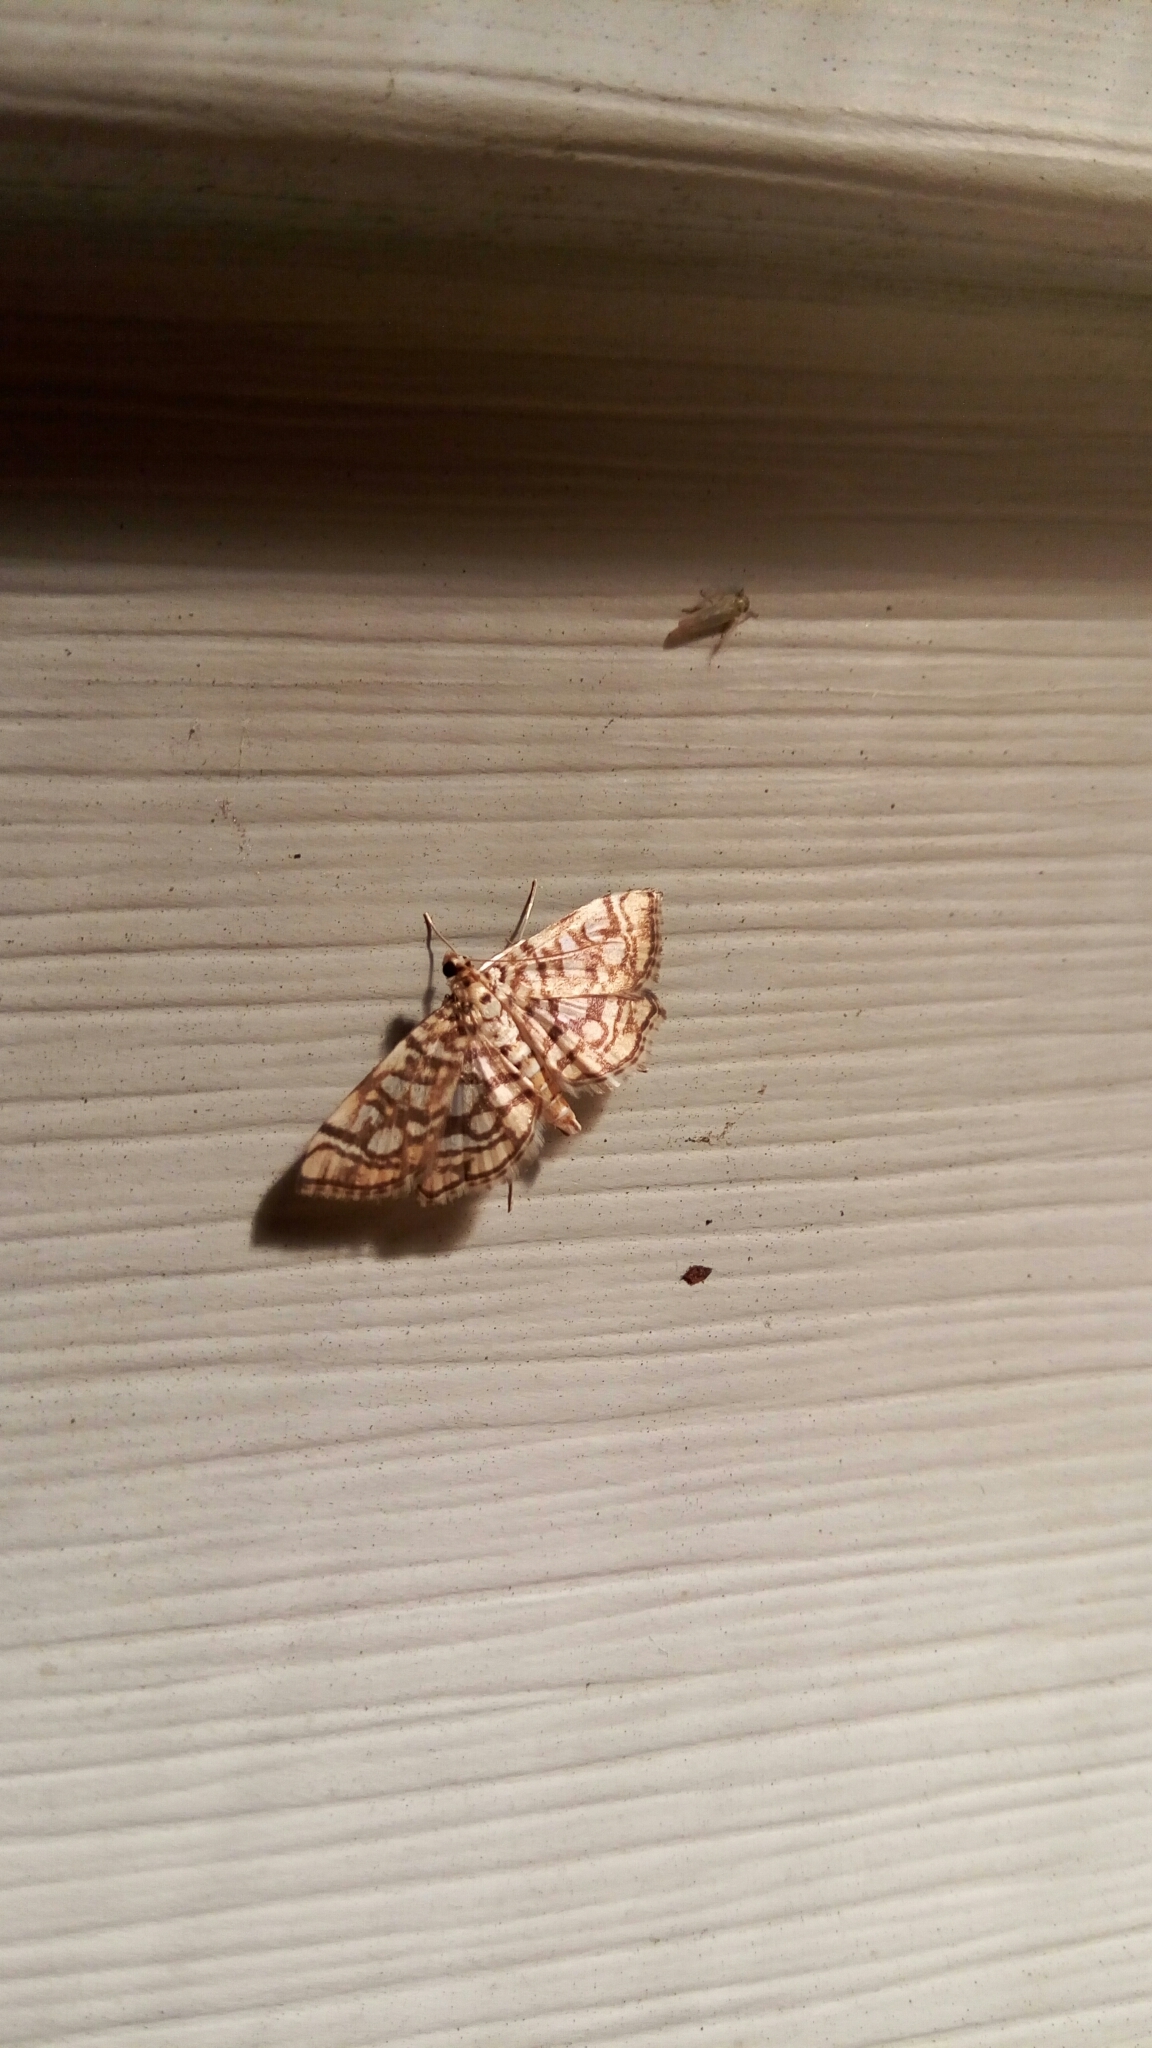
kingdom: Animalia
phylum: Arthropoda
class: Insecta
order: Lepidoptera
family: Crambidae
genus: Lygropia
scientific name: Lygropia rivulalis
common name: Bog lygropia moth
